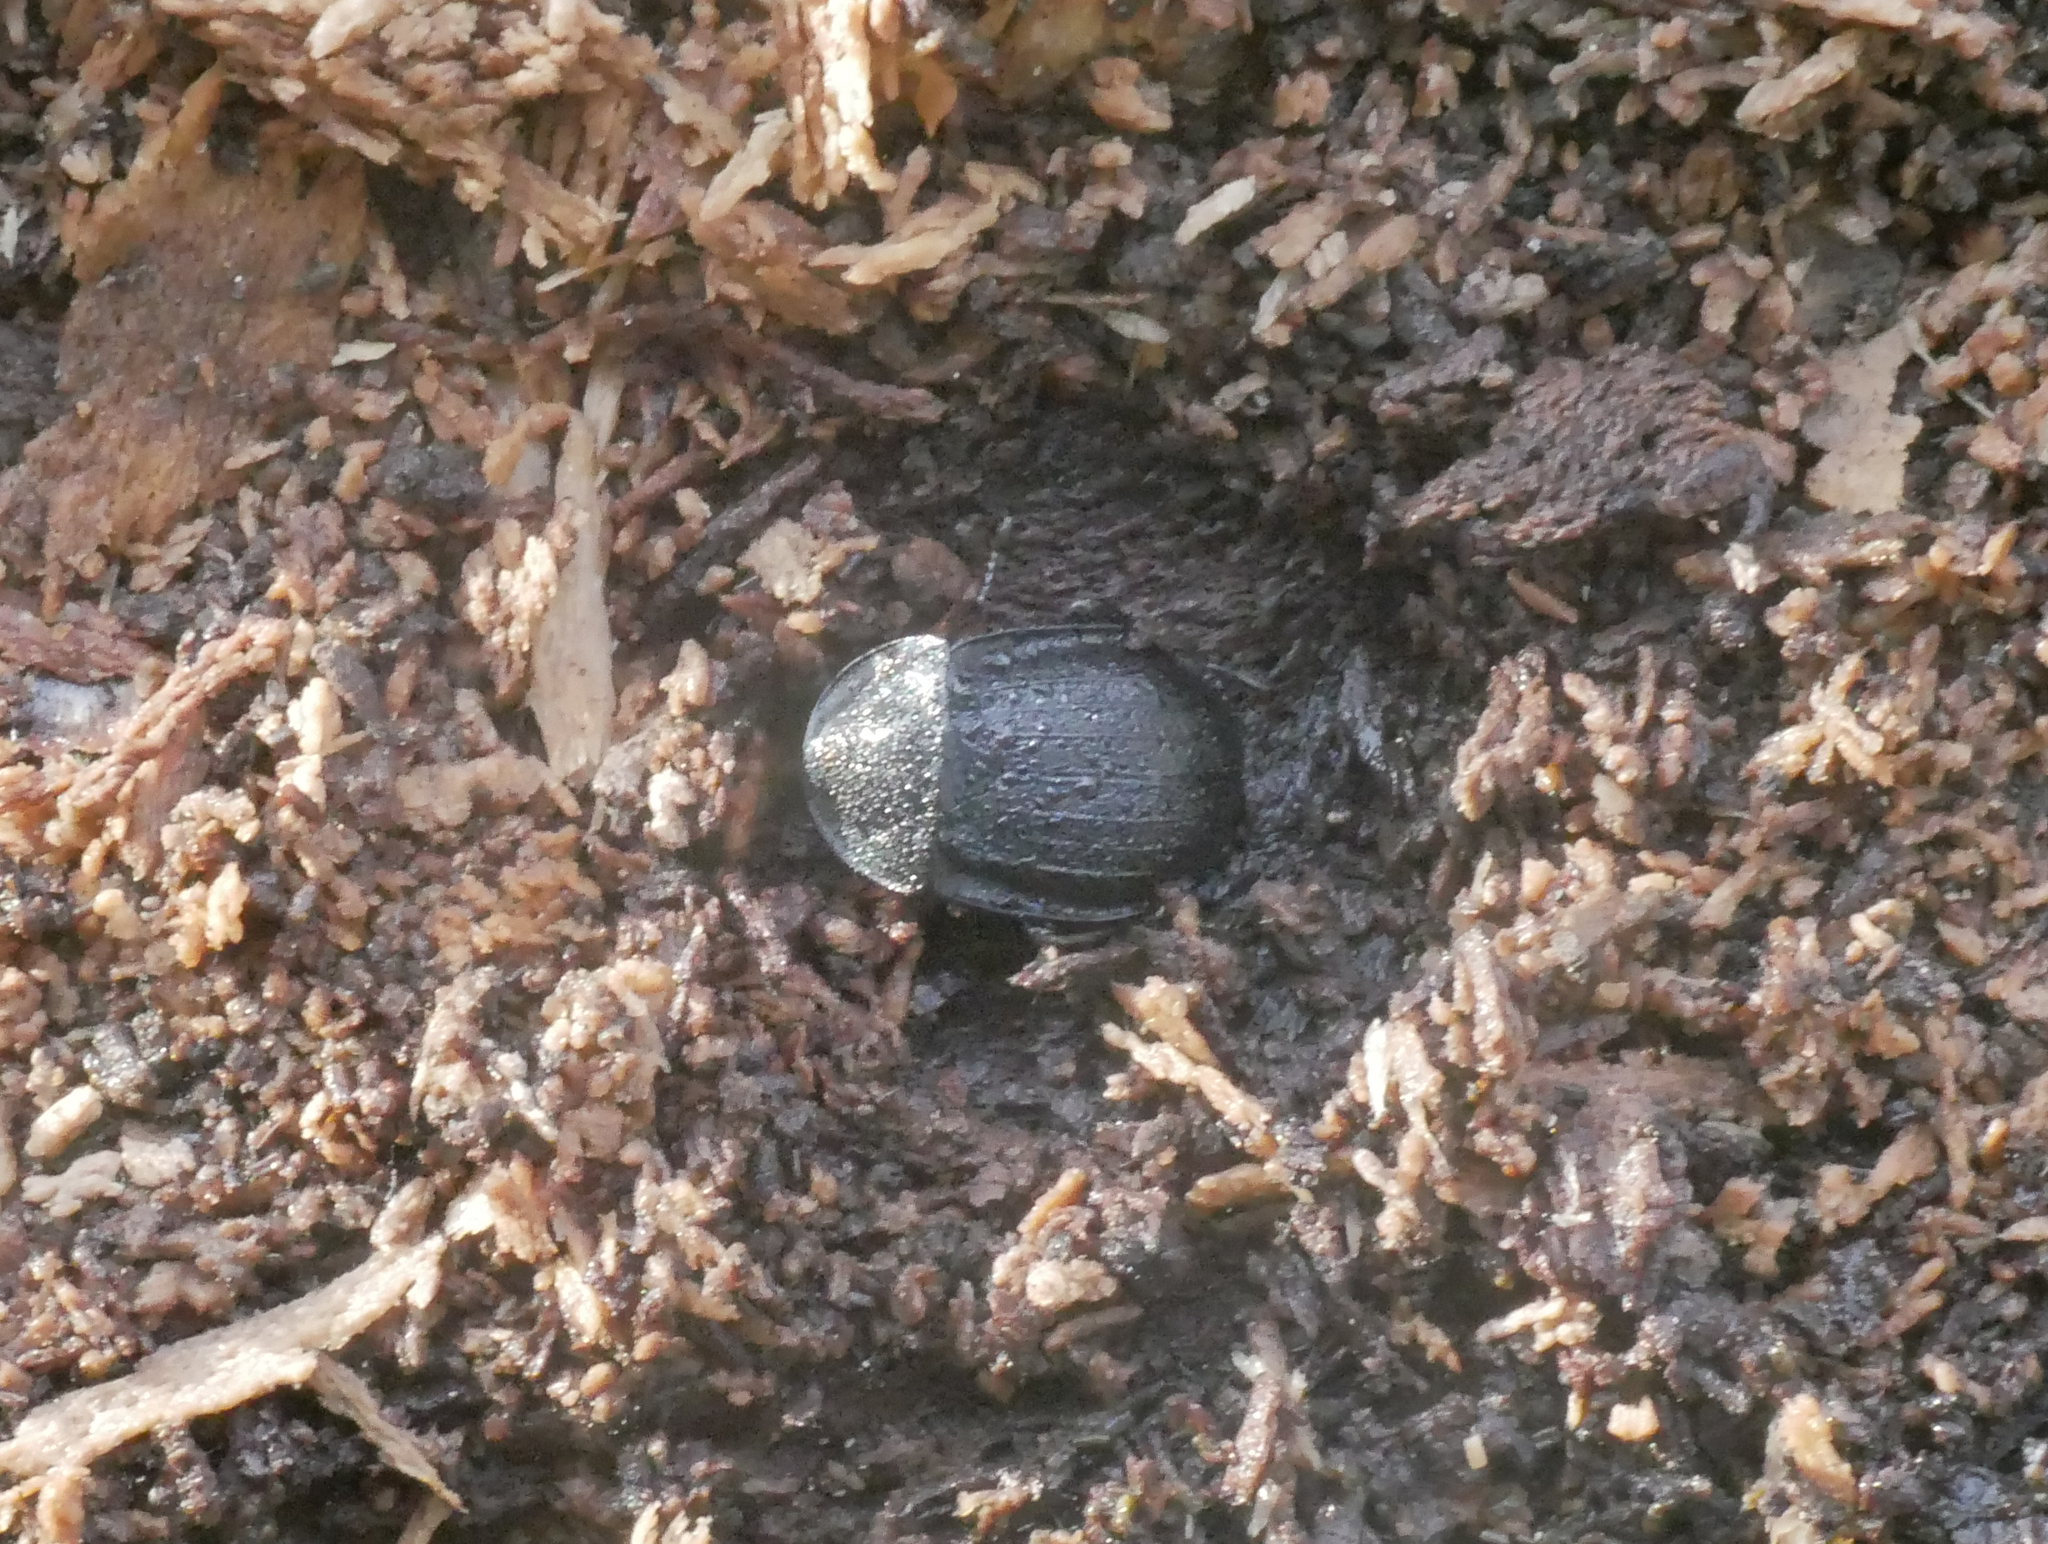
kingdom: Animalia
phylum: Arthropoda
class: Insecta
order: Coleoptera
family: Staphylinidae
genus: Silpha
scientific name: Silpha atrata
